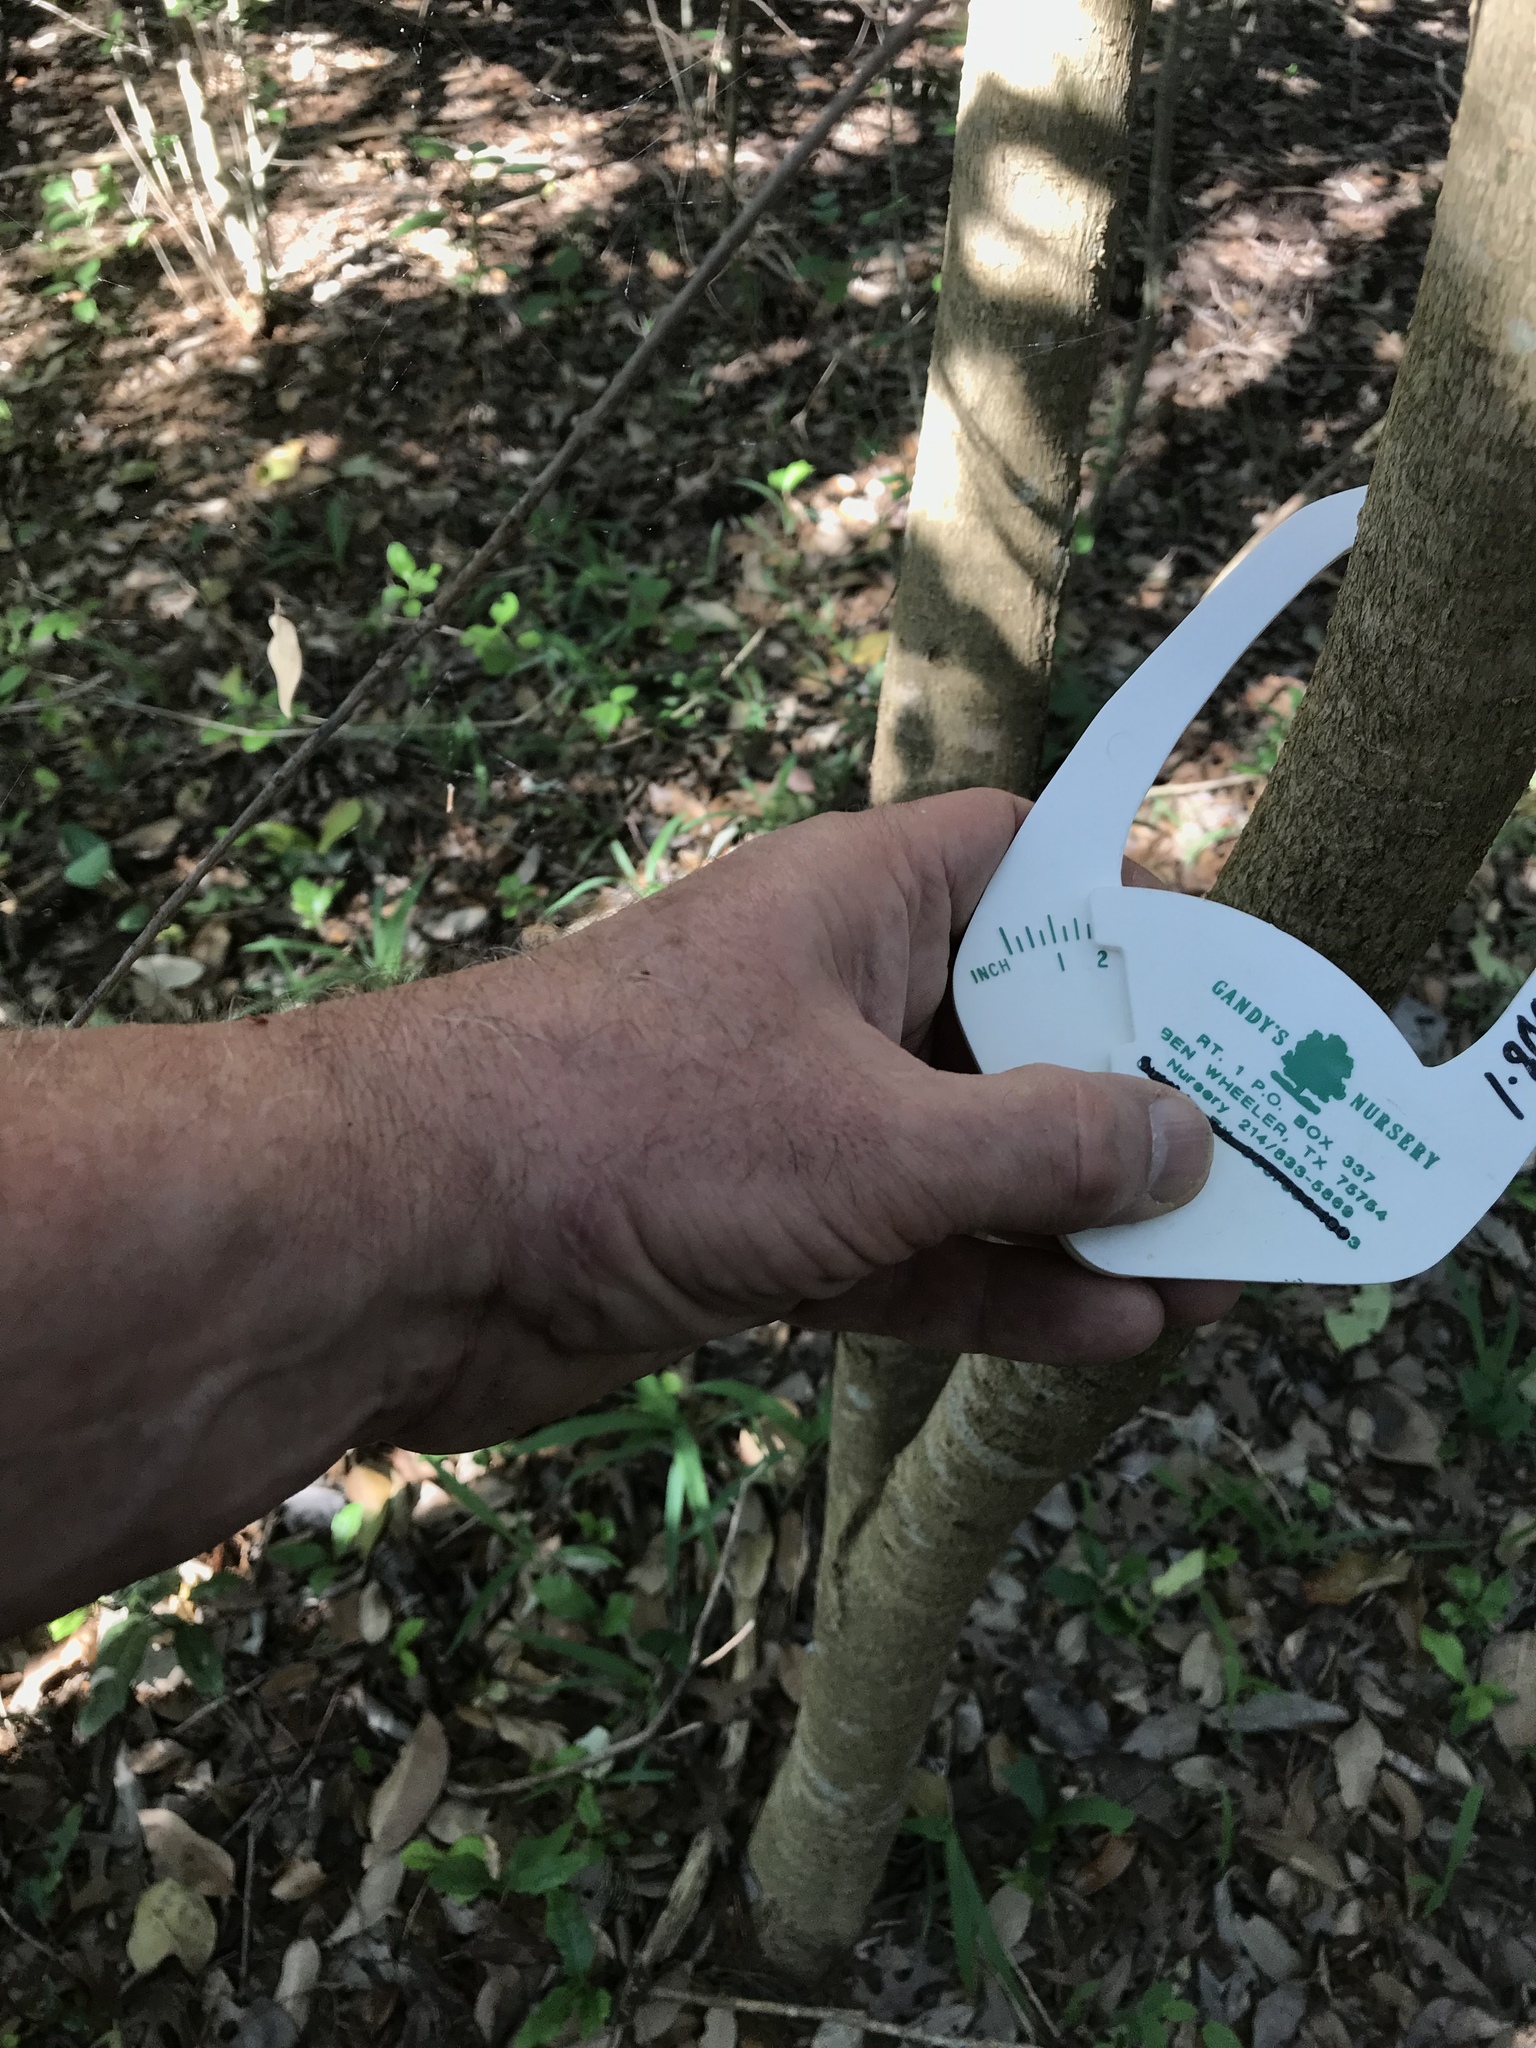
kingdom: Plantae
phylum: Tracheophyta
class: Magnoliopsida
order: Lamiales
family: Oleaceae
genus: Ligustrum
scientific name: Ligustrum lucidum
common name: Glossy privet
